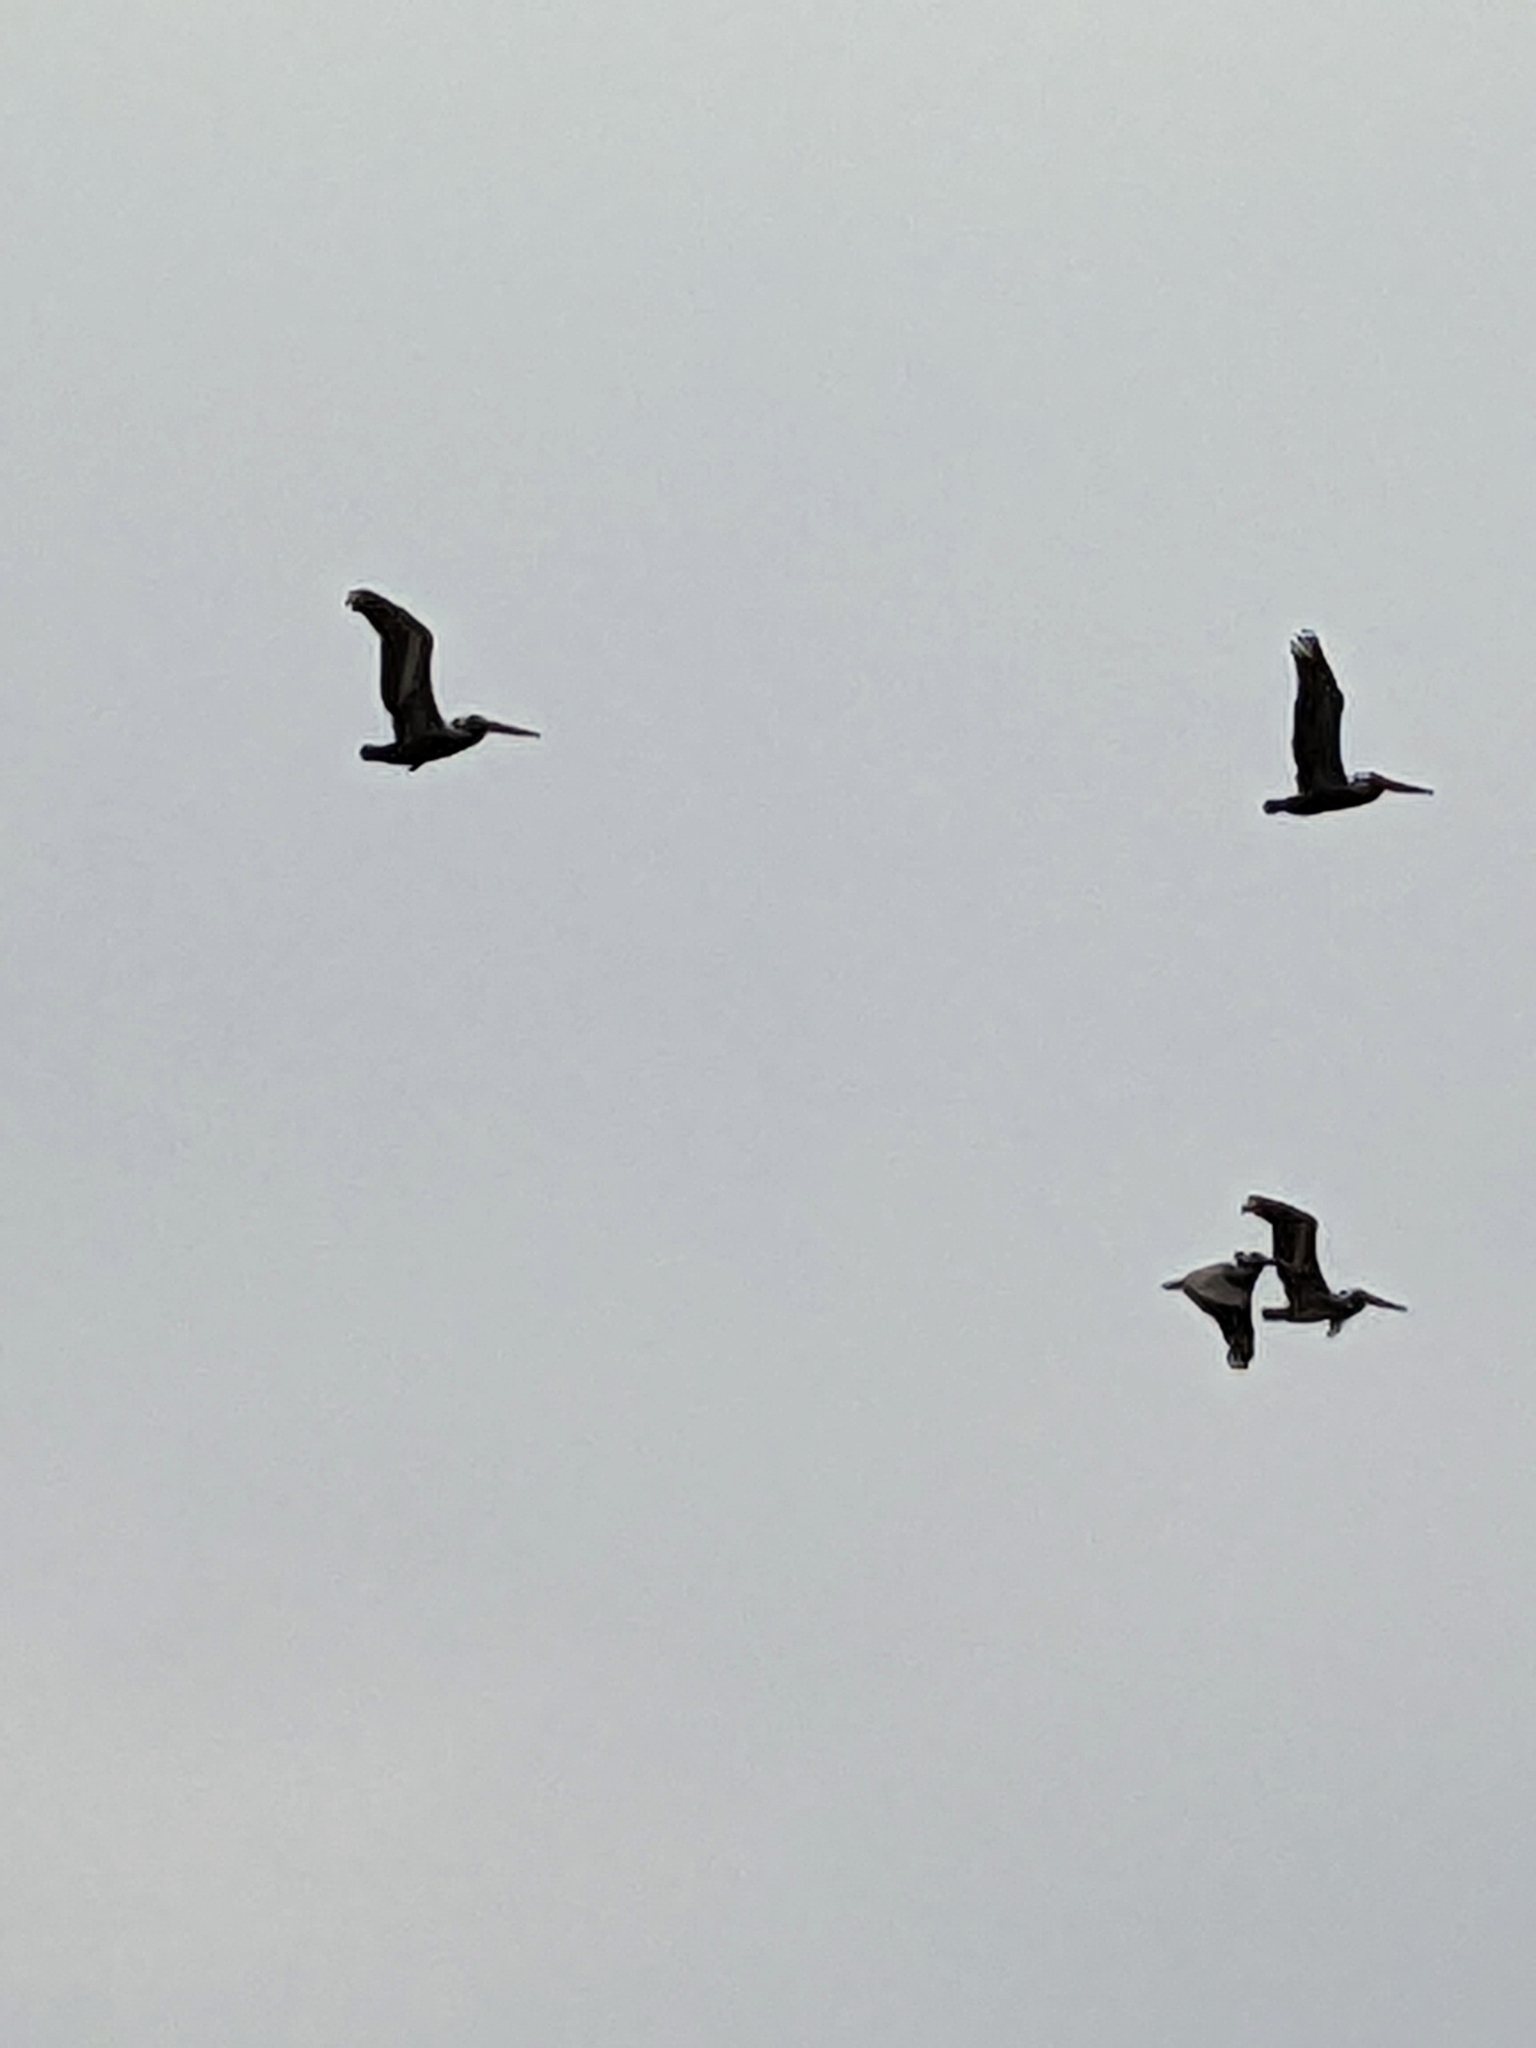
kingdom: Animalia
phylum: Chordata
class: Aves
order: Pelecaniformes
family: Pelecanidae
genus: Pelecanus
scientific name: Pelecanus occidentalis
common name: Brown pelican
